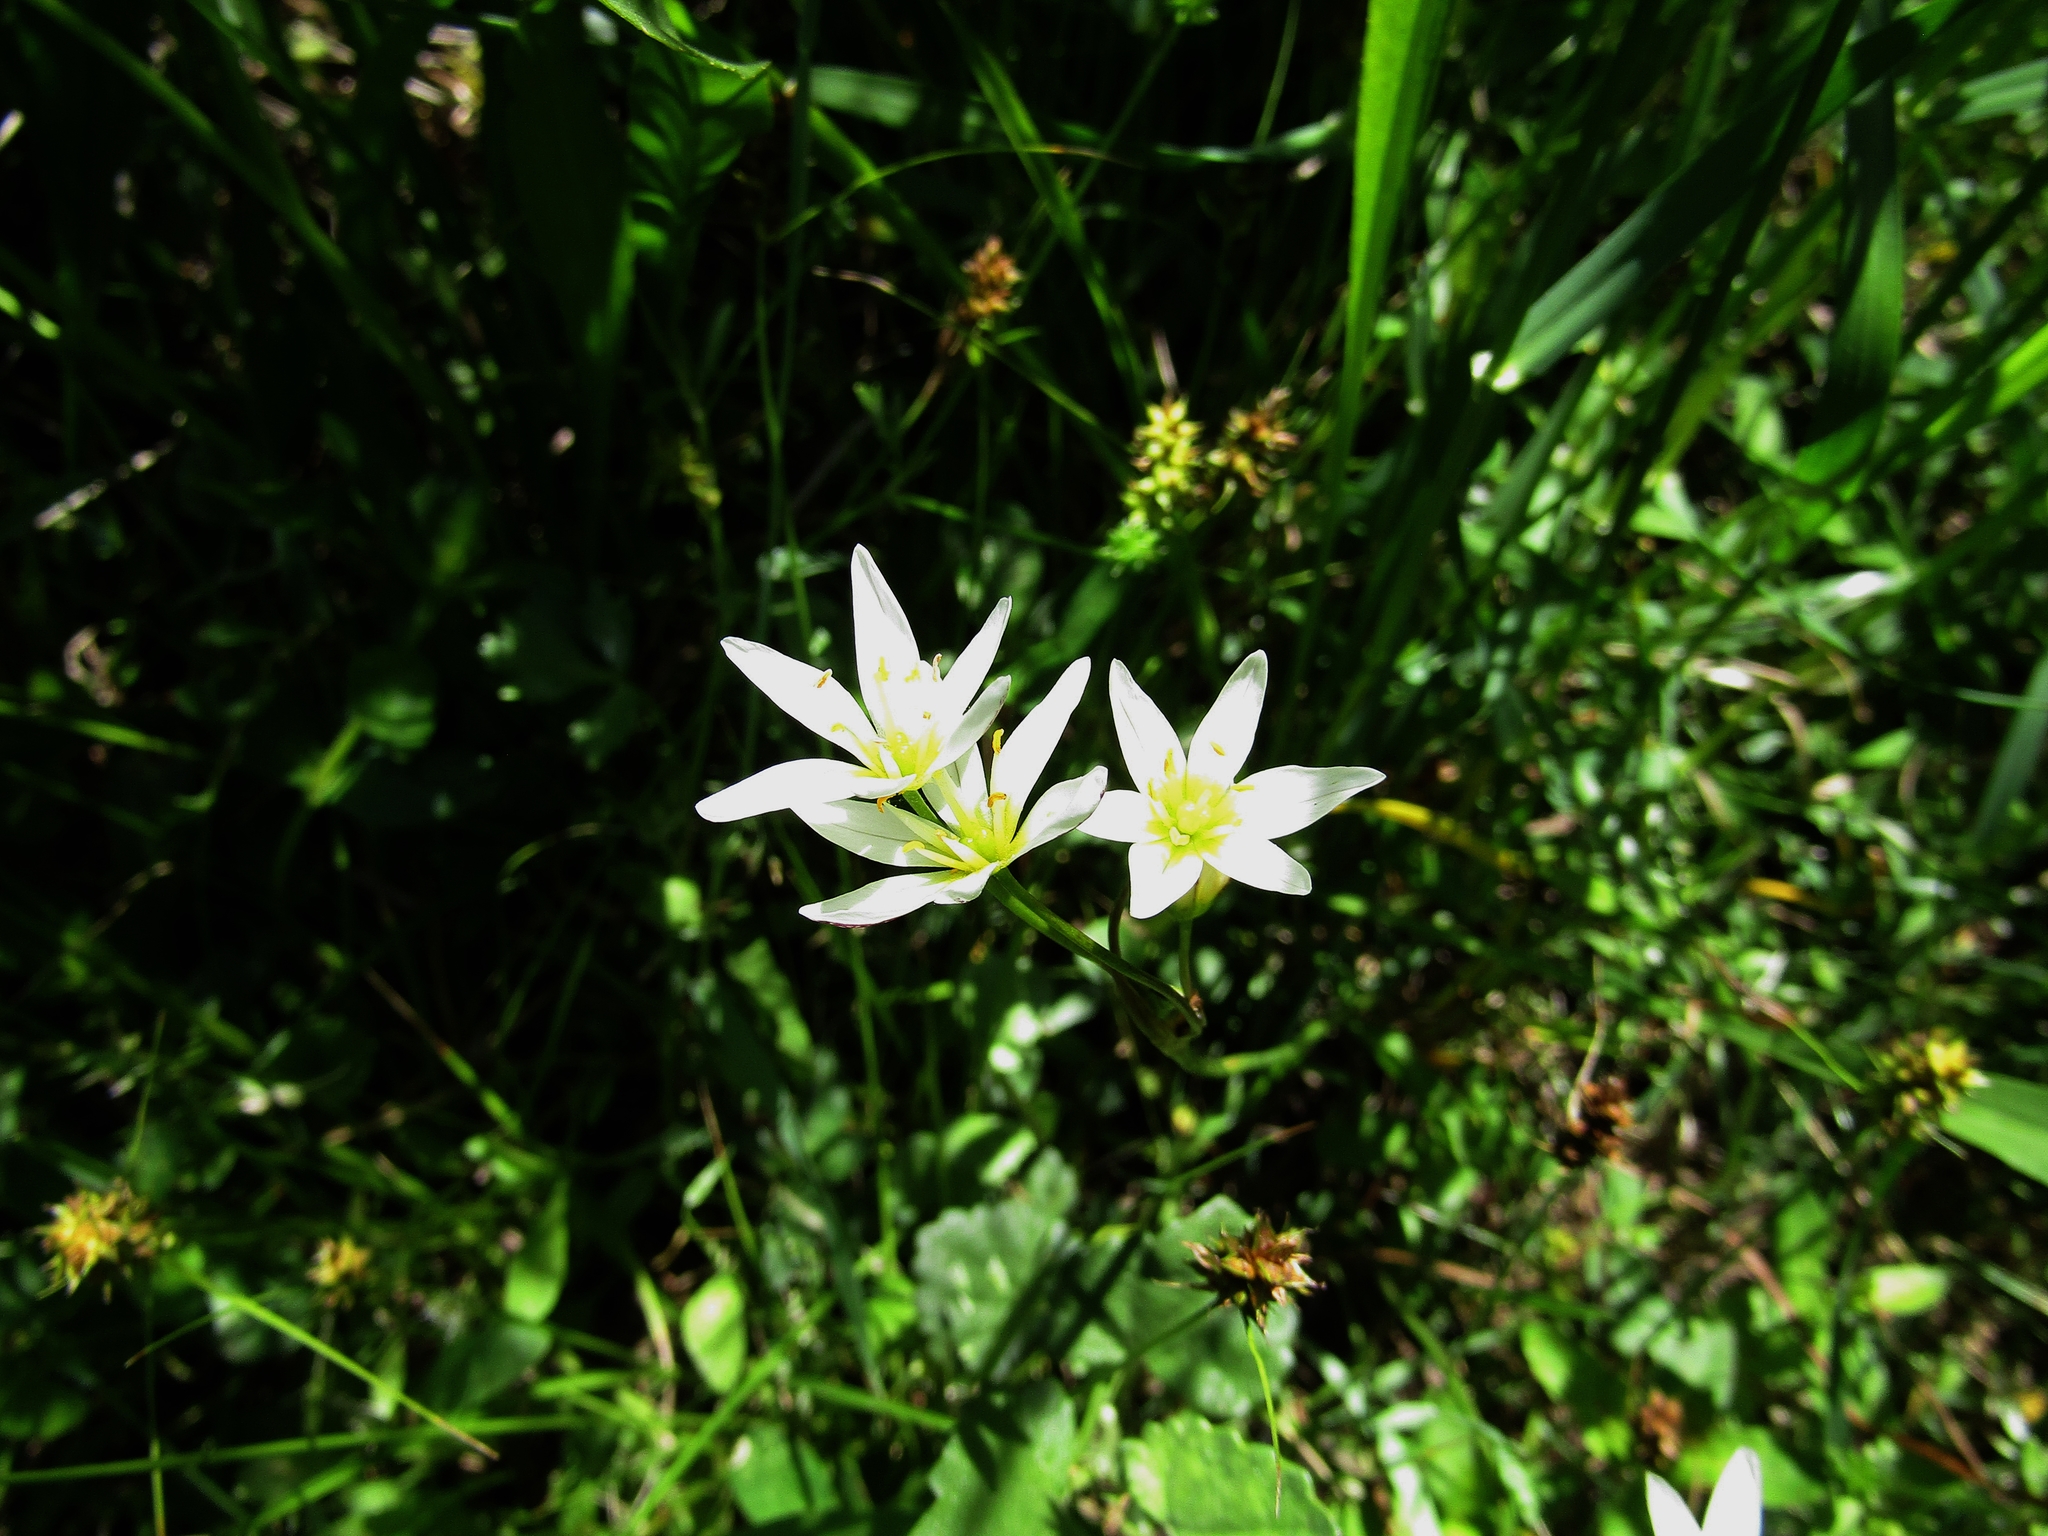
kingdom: Plantae
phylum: Tracheophyta
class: Liliopsida
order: Asparagales
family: Amaryllidaceae
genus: Nothoscordum
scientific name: Nothoscordum bivalve
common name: Crow-poison
